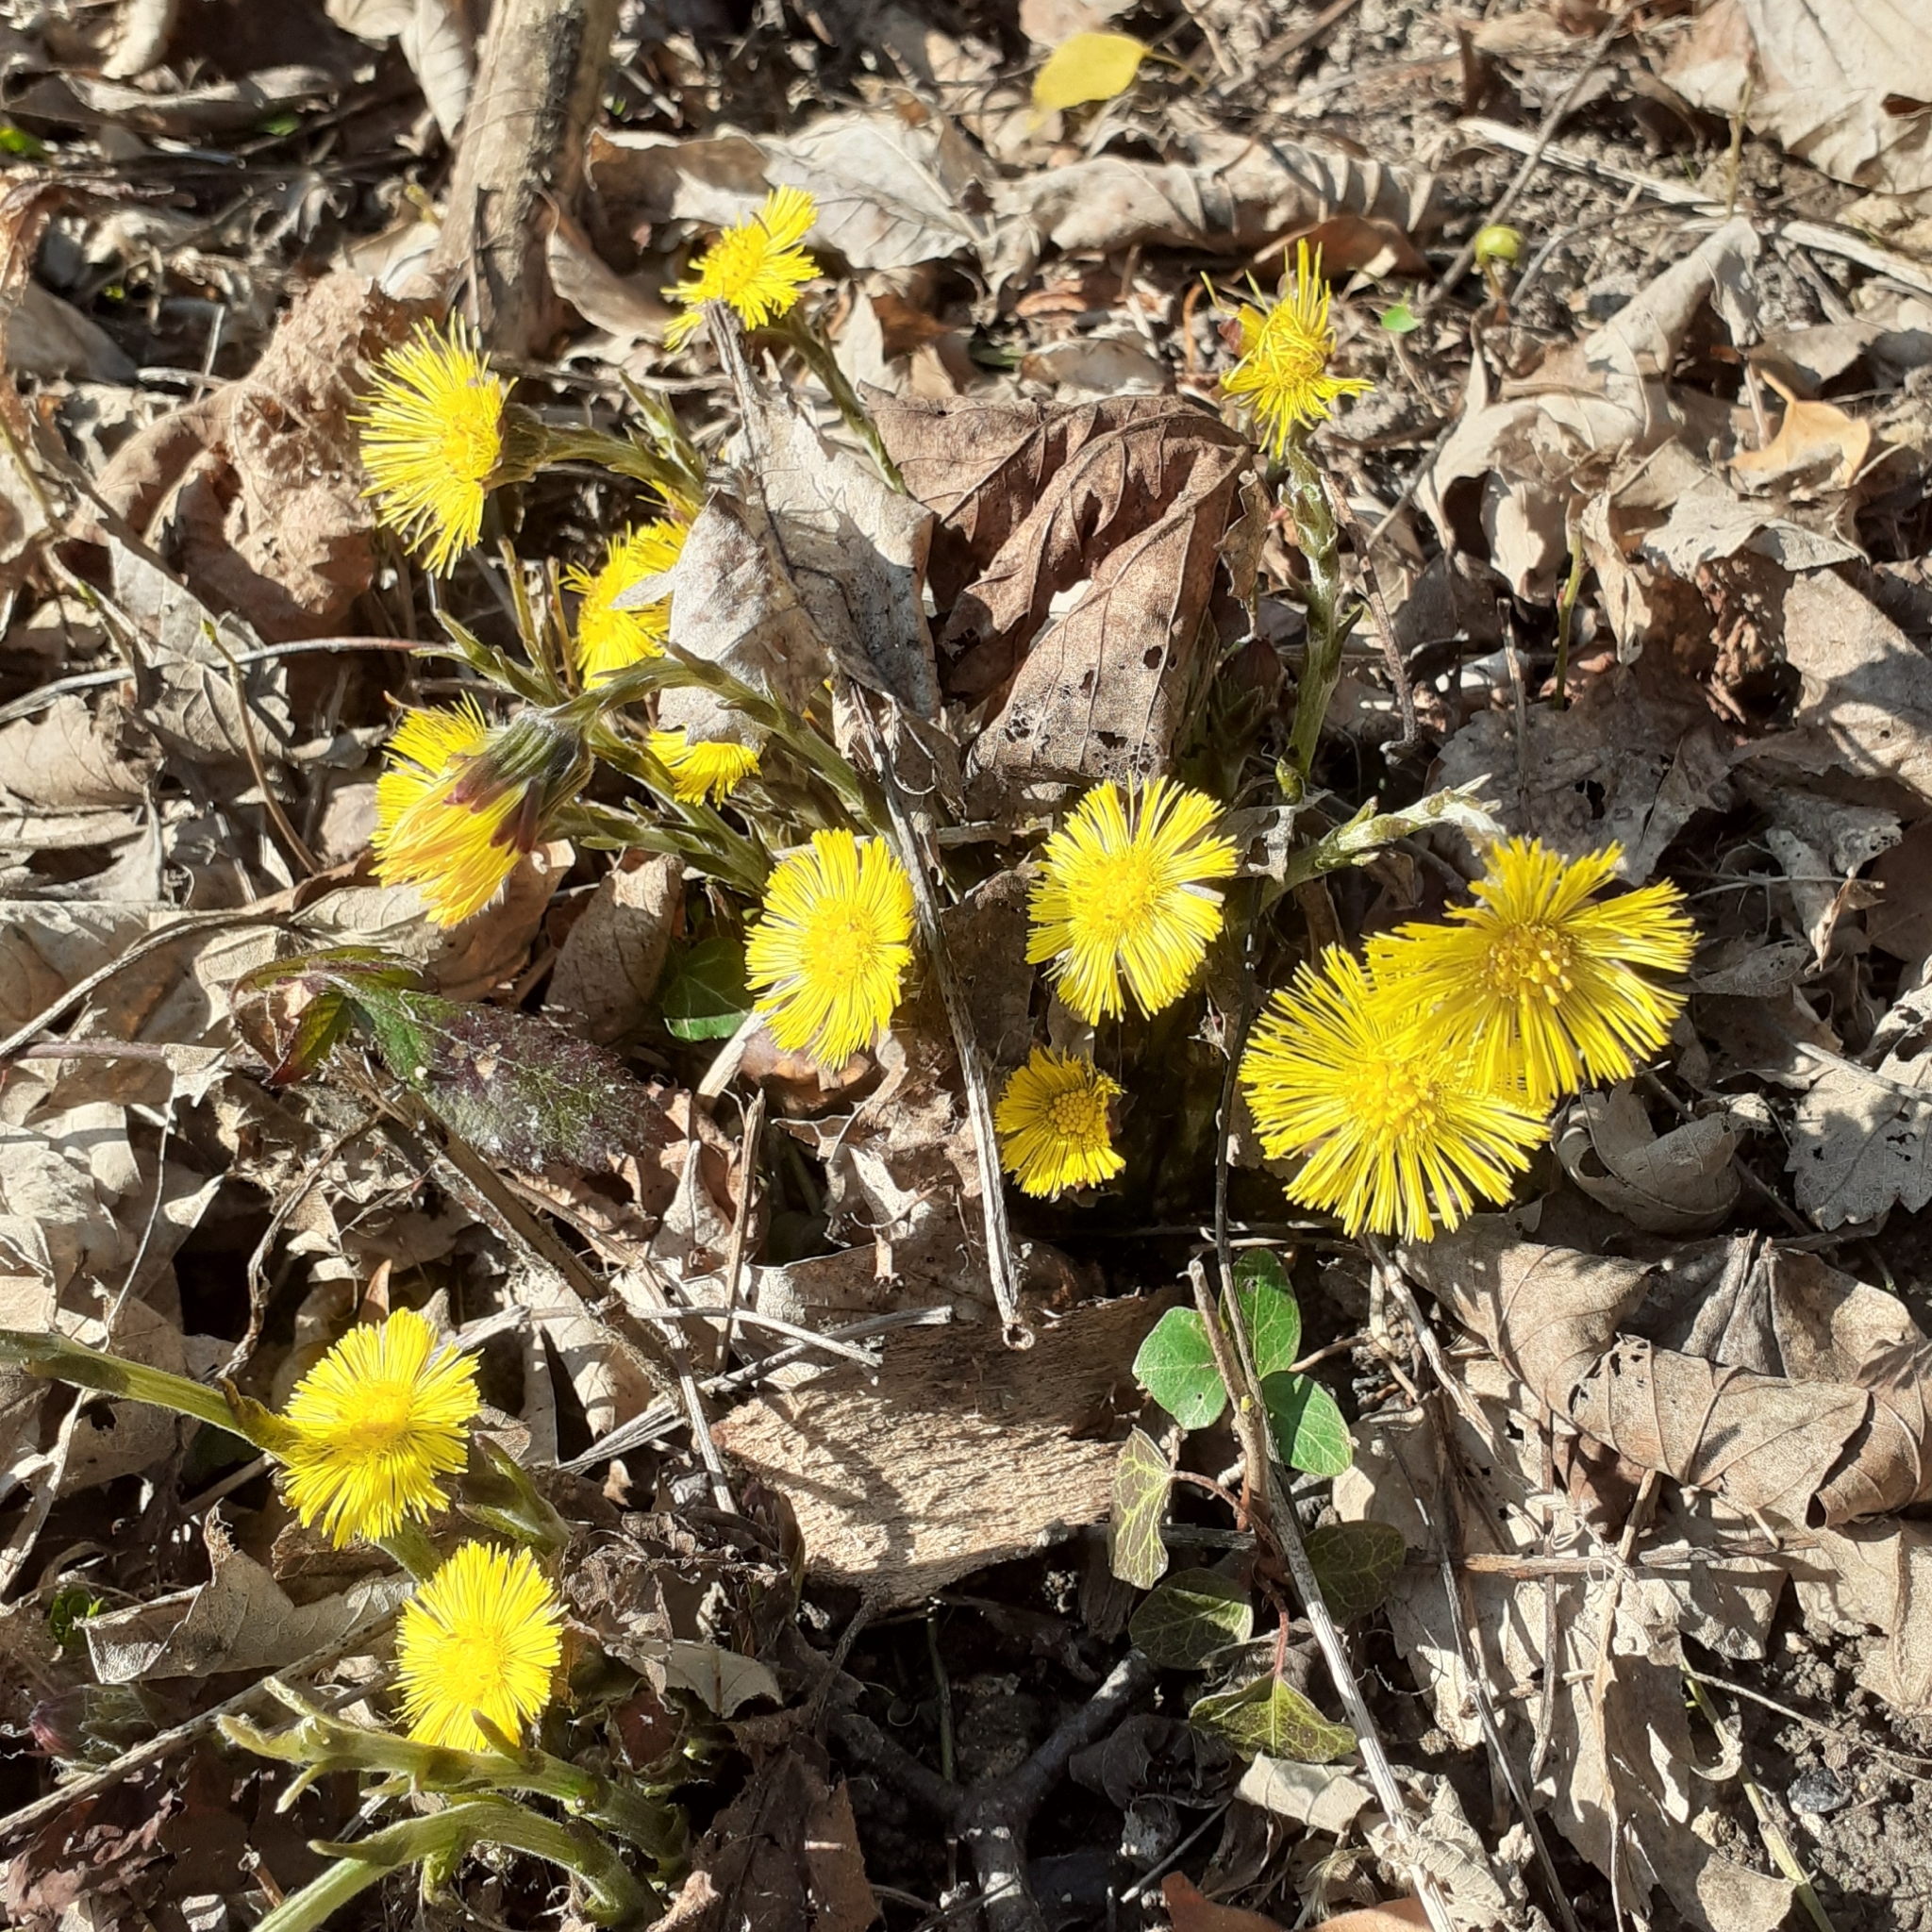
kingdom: Plantae
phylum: Tracheophyta
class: Magnoliopsida
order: Asterales
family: Asteraceae
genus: Tussilago
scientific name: Tussilago farfara
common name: Coltsfoot
